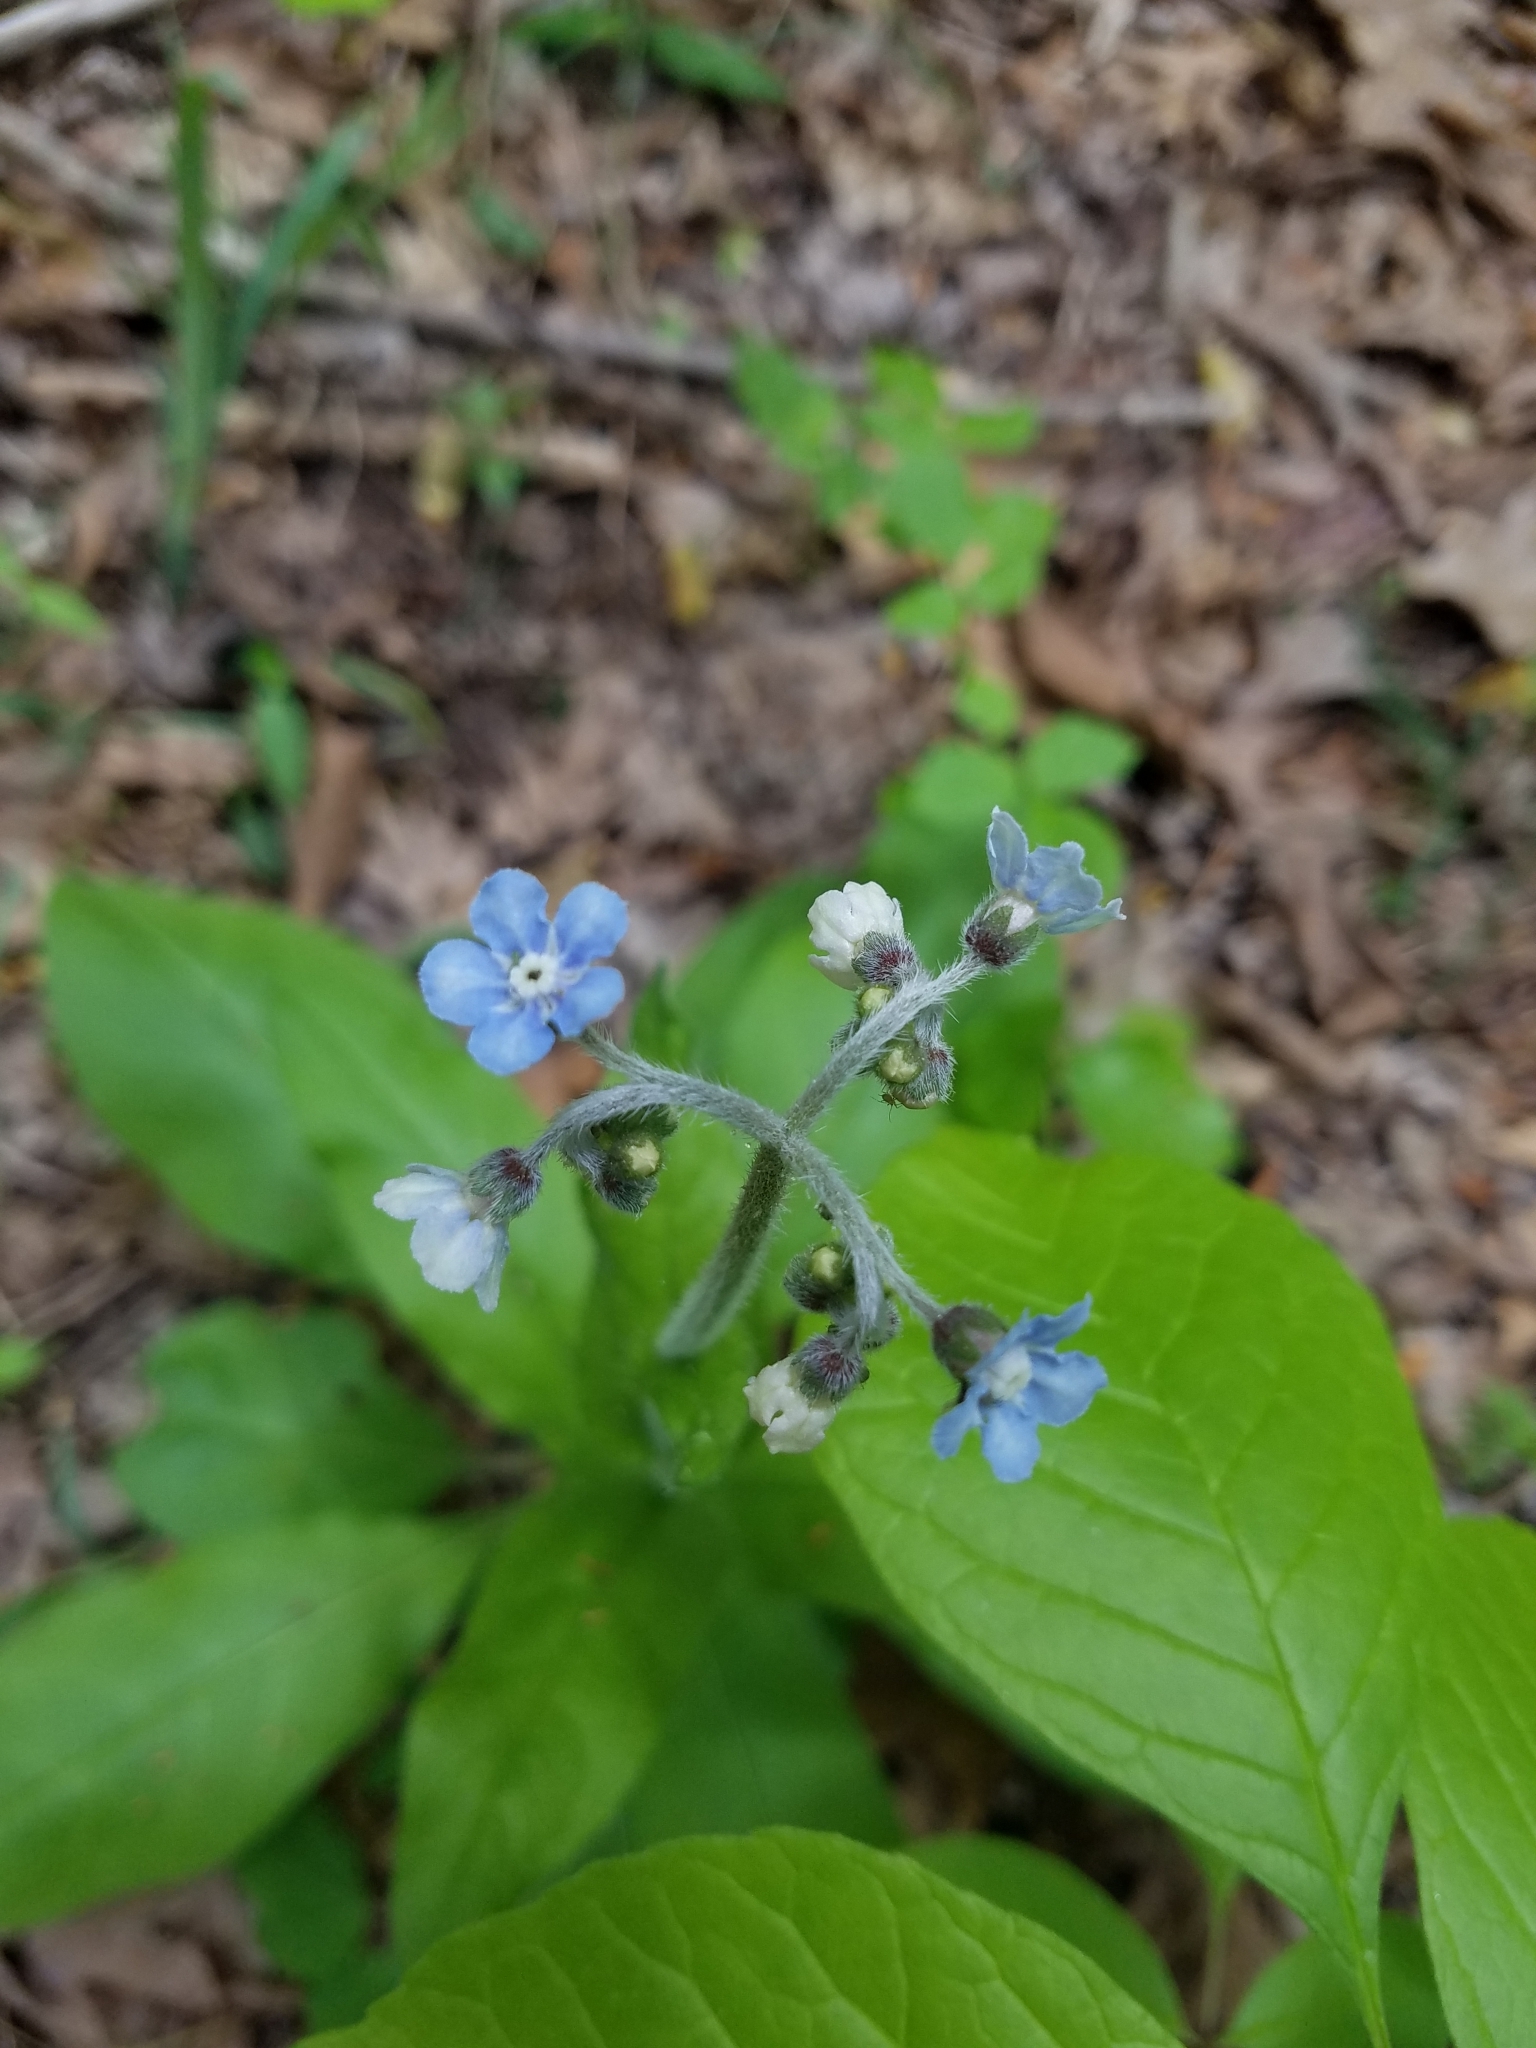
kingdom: Plantae
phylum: Tracheophyta
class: Magnoliopsida
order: Boraginales
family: Boraginaceae
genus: Andersonglossum
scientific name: Andersonglossum virginianum
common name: Wild comfrey
